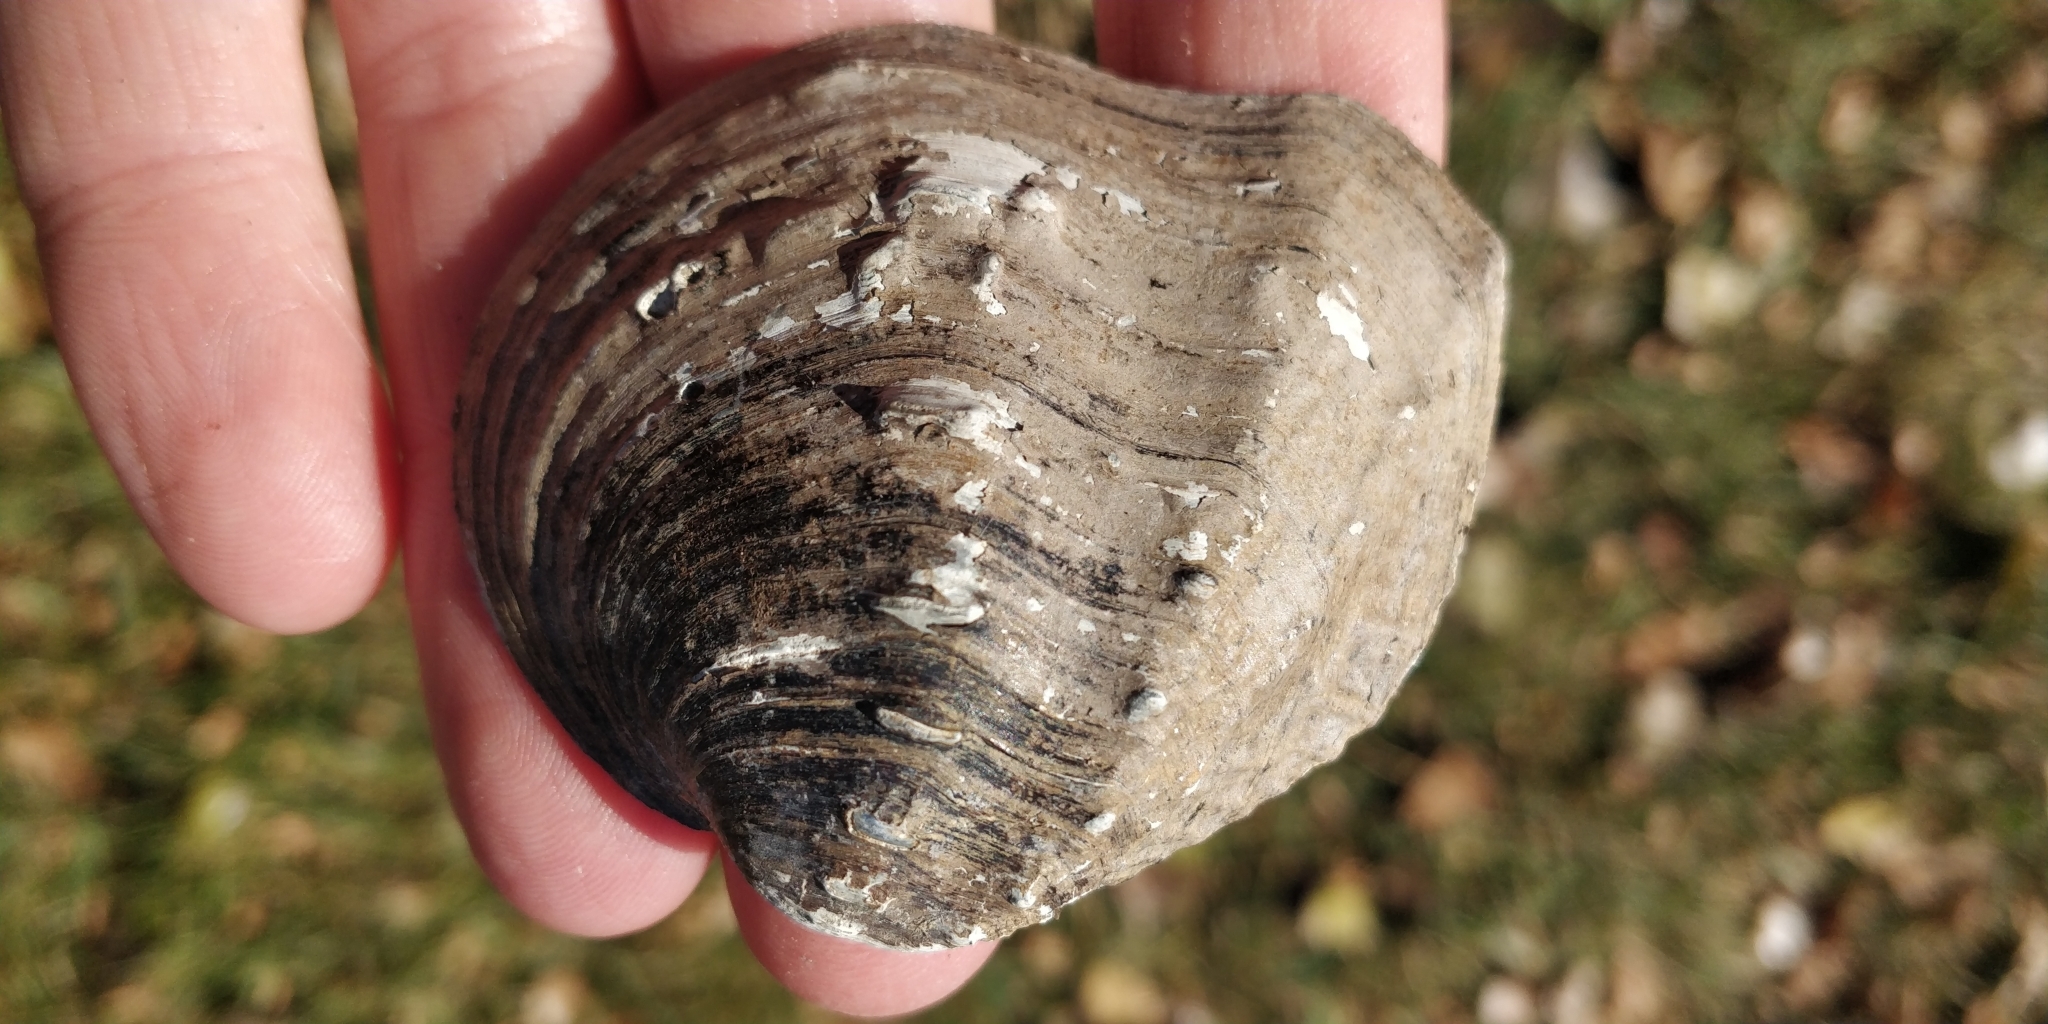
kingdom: Animalia
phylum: Mollusca
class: Bivalvia
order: Unionida
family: Unionidae
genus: Tritogonia
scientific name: Tritogonia nobilis
